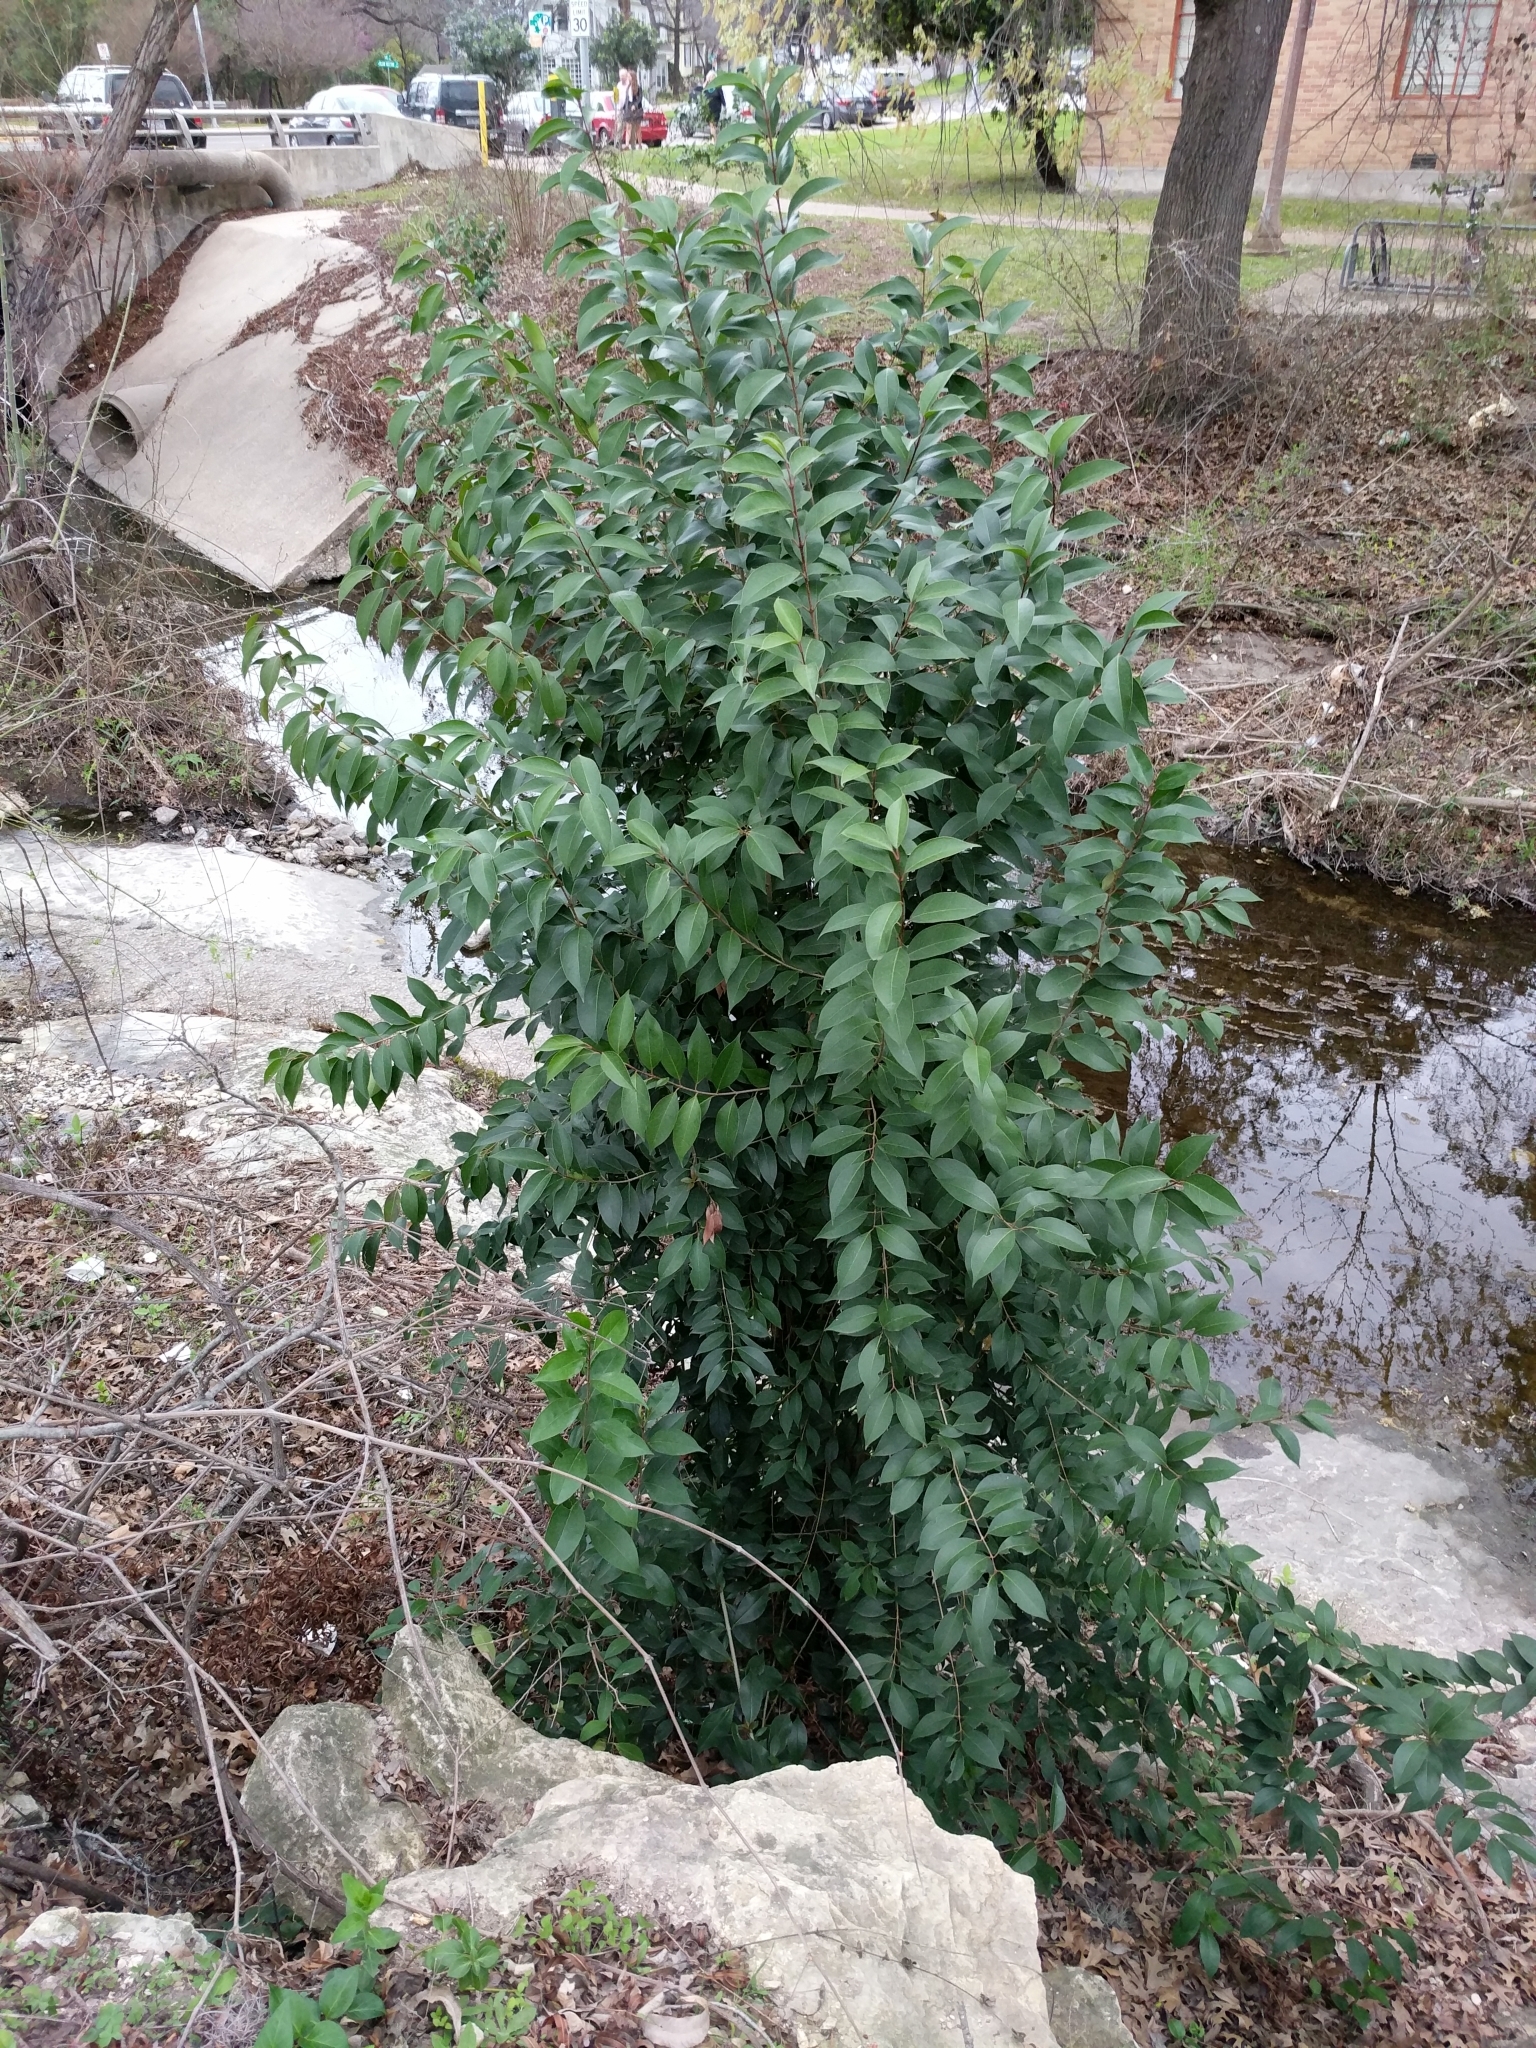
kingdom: Plantae
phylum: Tracheophyta
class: Magnoliopsida
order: Lamiales
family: Oleaceae
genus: Ligustrum
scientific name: Ligustrum lucidum
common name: Glossy privet
